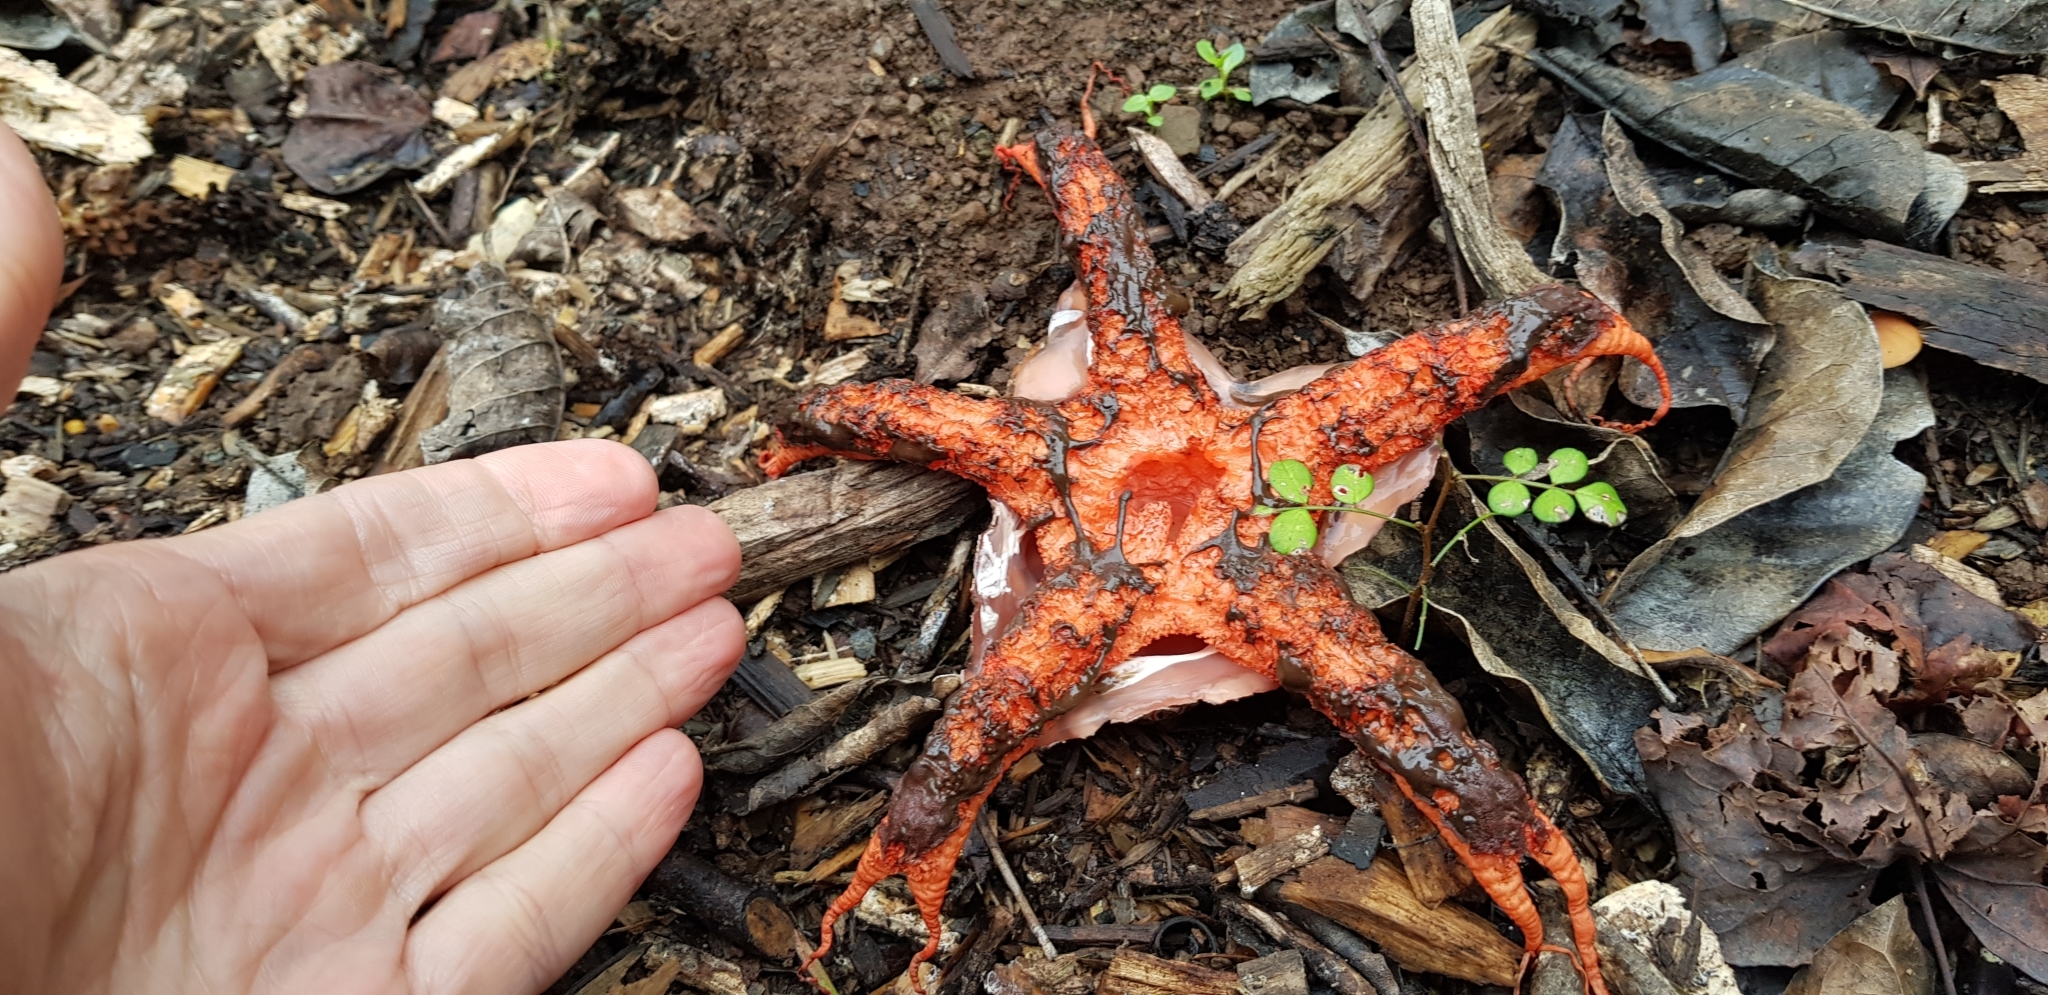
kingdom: Fungi
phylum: Basidiomycota
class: Agaricomycetes
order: Phallales
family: Phallaceae
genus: Clathrus
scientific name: Clathrus archeri
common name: Devil's fingers
